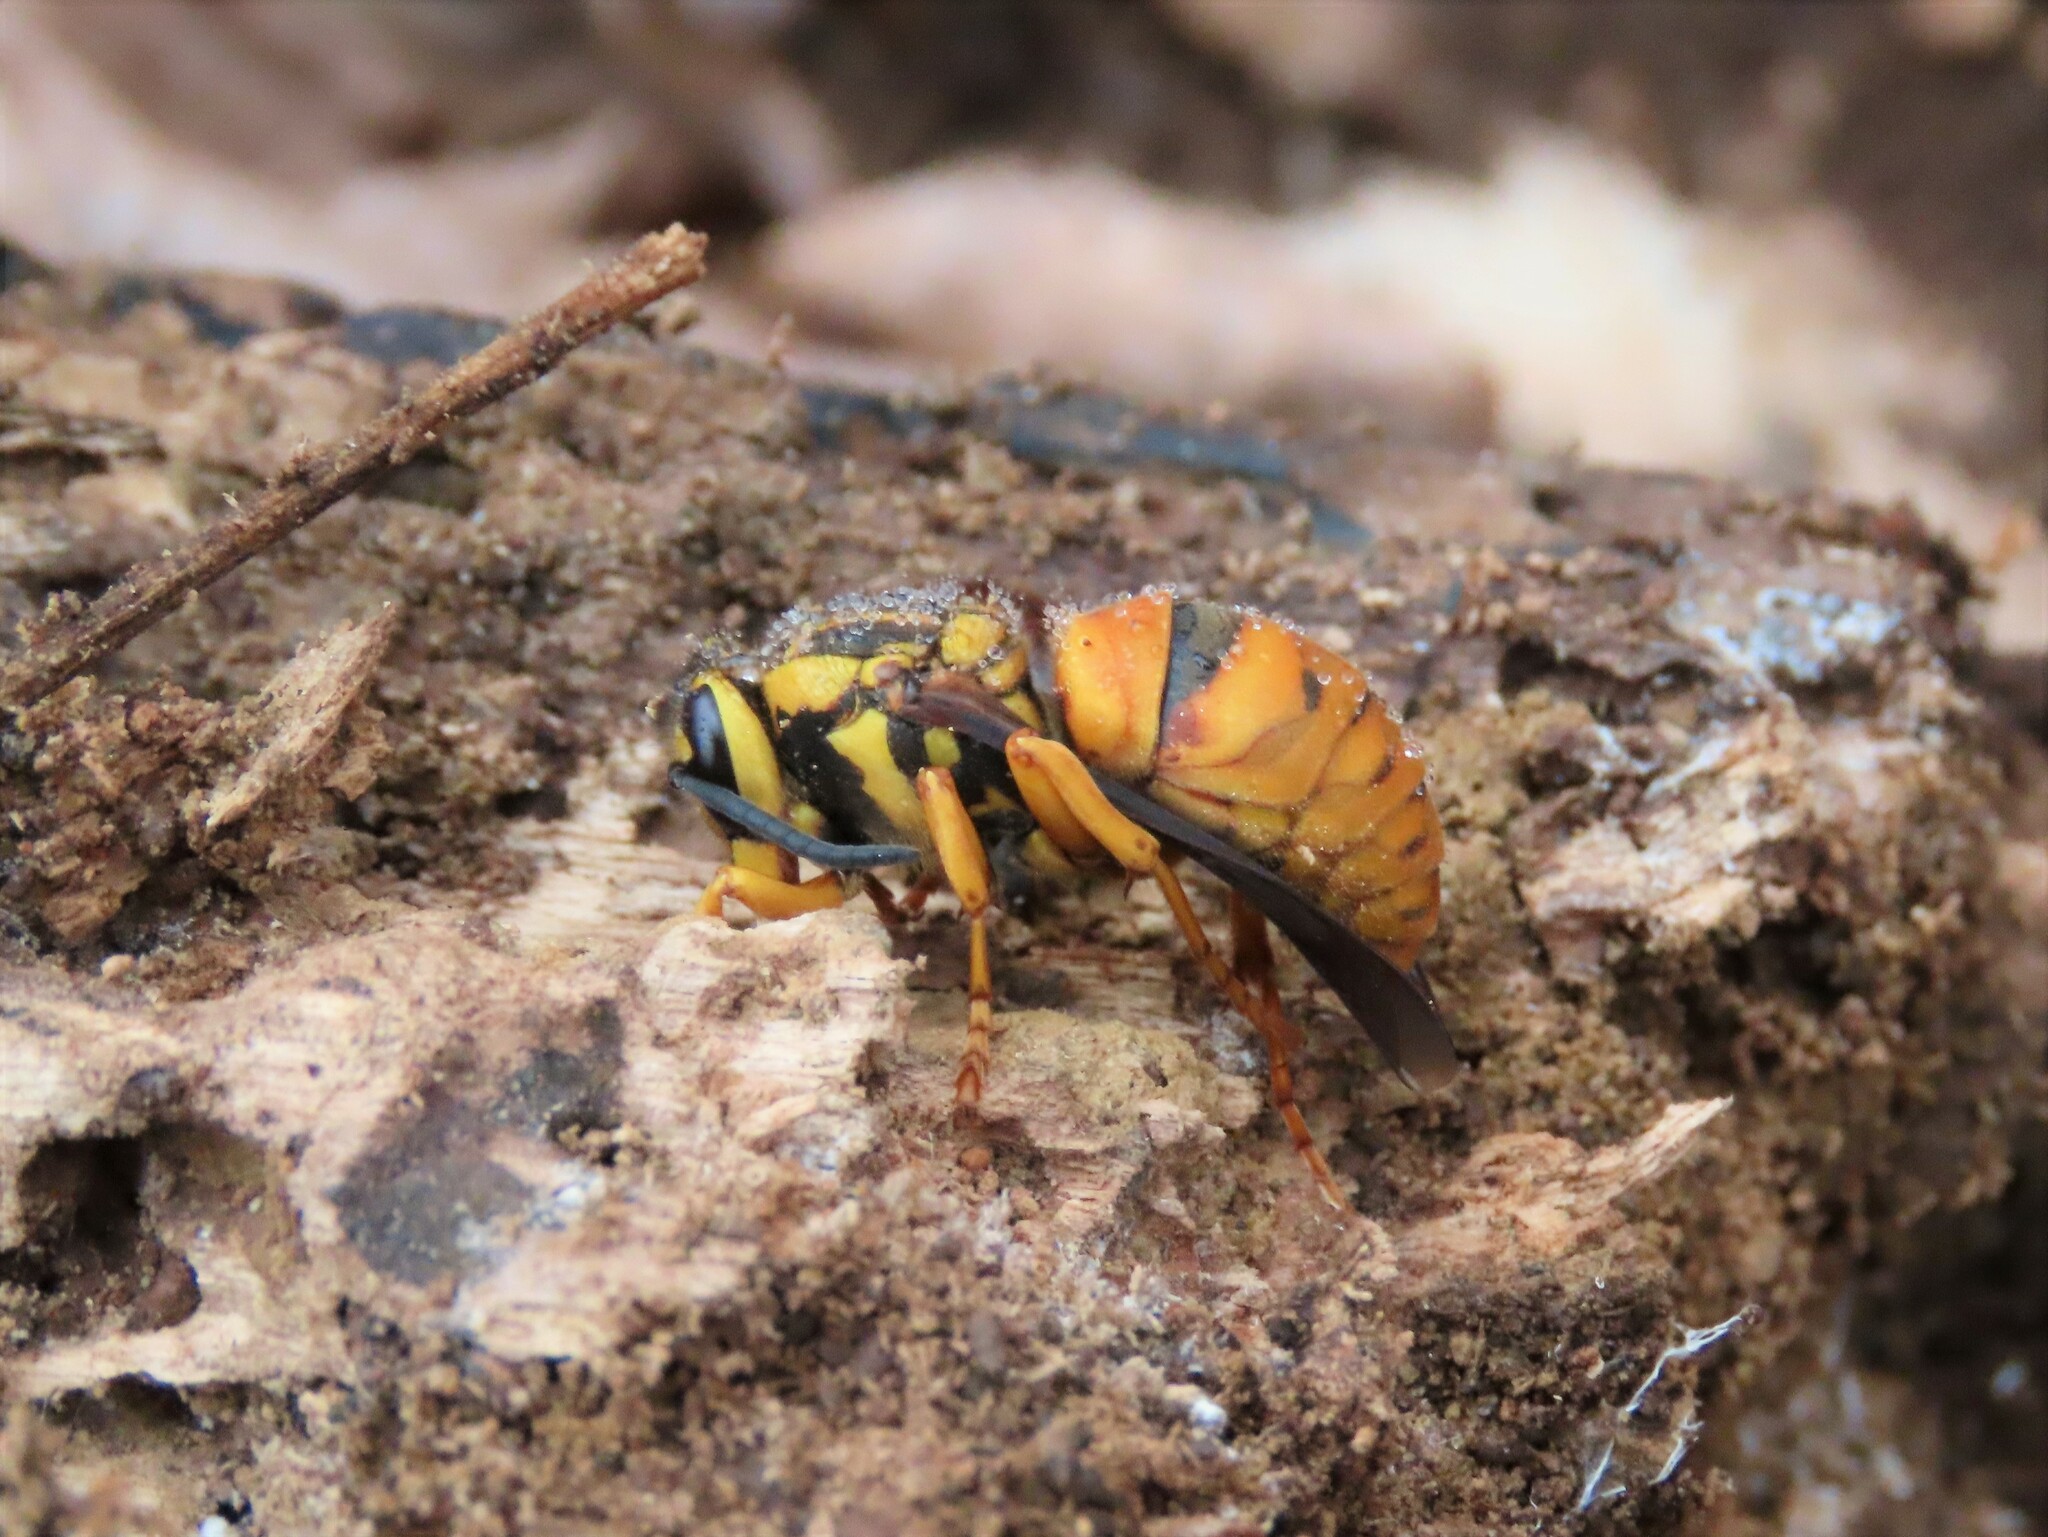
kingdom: Animalia
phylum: Arthropoda
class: Insecta
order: Hymenoptera
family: Vespidae
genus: Vespula
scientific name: Vespula squamosa
